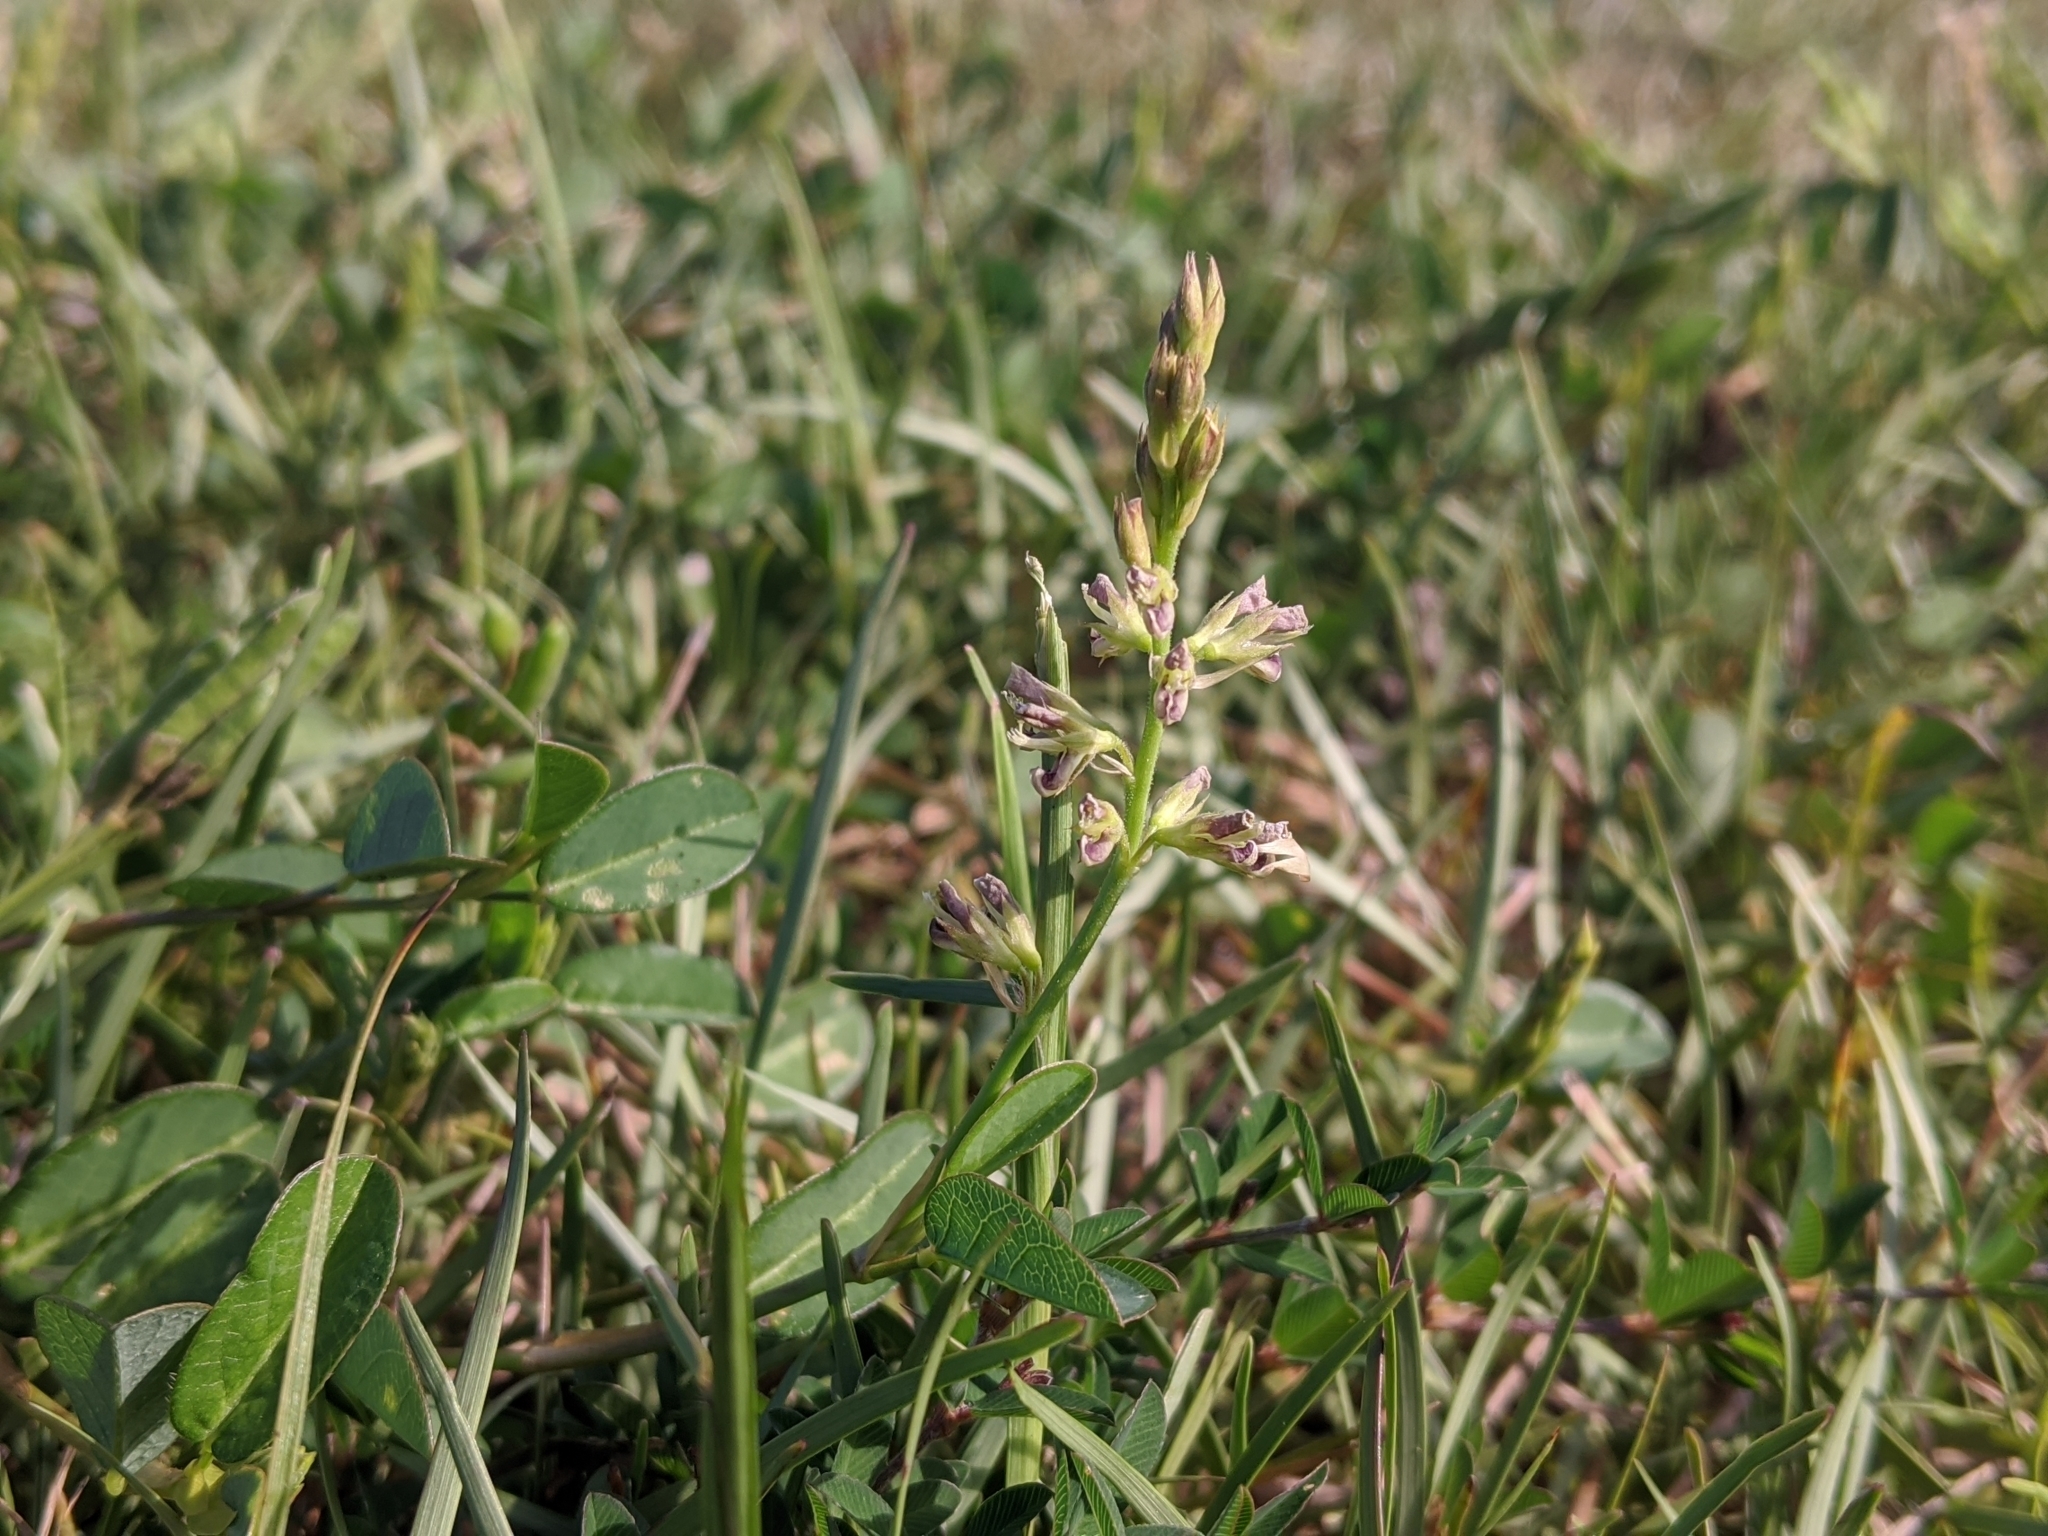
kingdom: Plantae
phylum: Tracheophyta
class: Magnoliopsida
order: Fabales
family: Fabaceae
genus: Alysicarpus
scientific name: Alysicarpus vaginalis
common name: White moneywort
